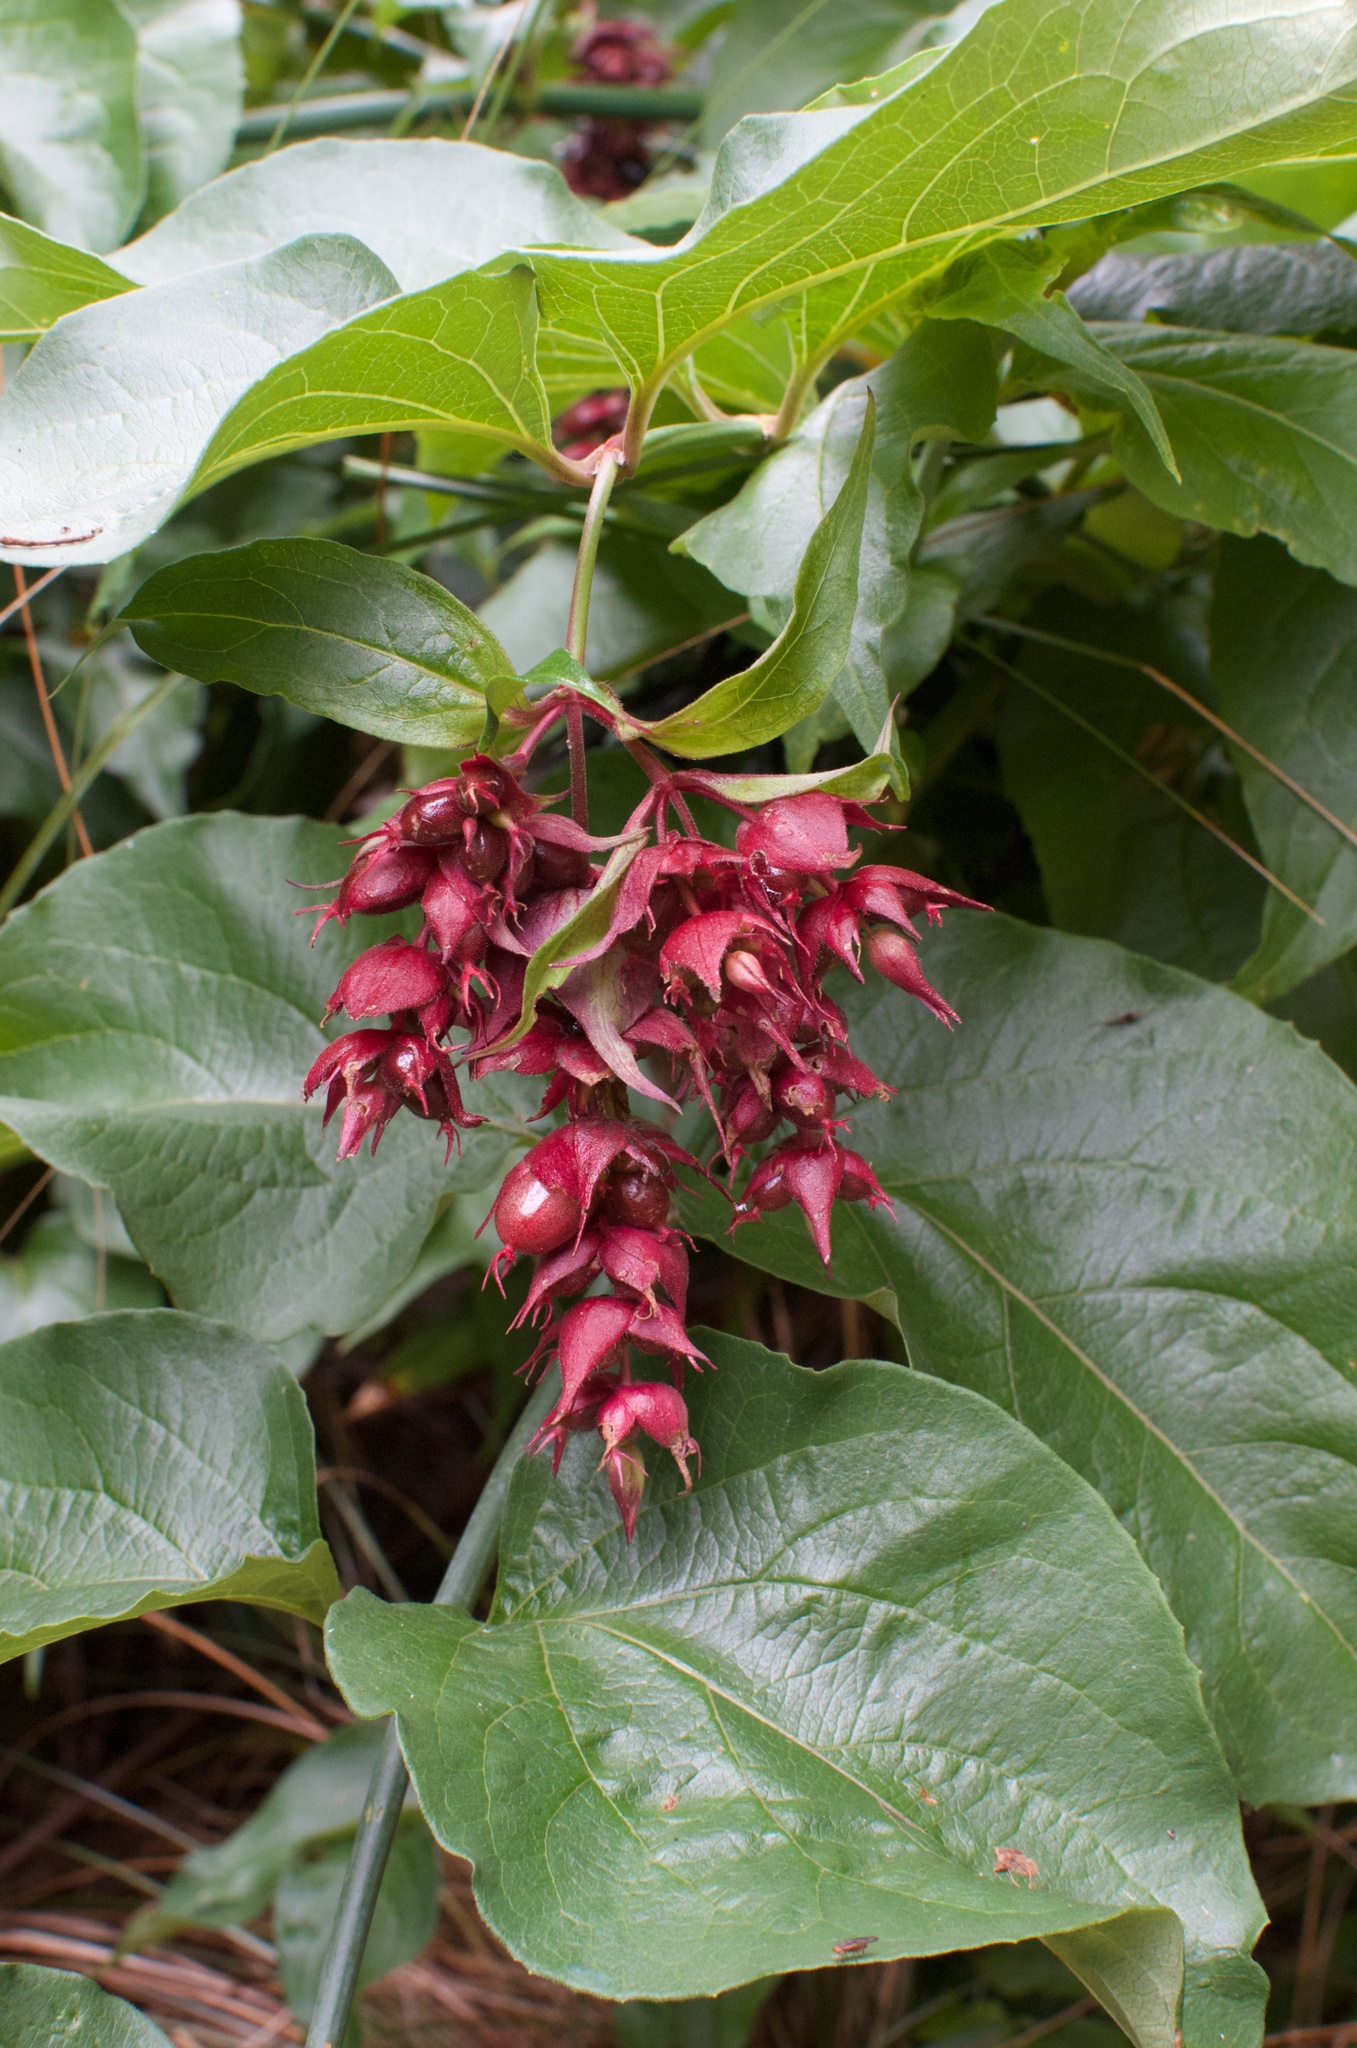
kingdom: Plantae
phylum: Tracheophyta
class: Magnoliopsida
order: Dipsacales
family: Caprifoliaceae
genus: Leycesteria
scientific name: Leycesteria formosa
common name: Himalayan honeysuckle
